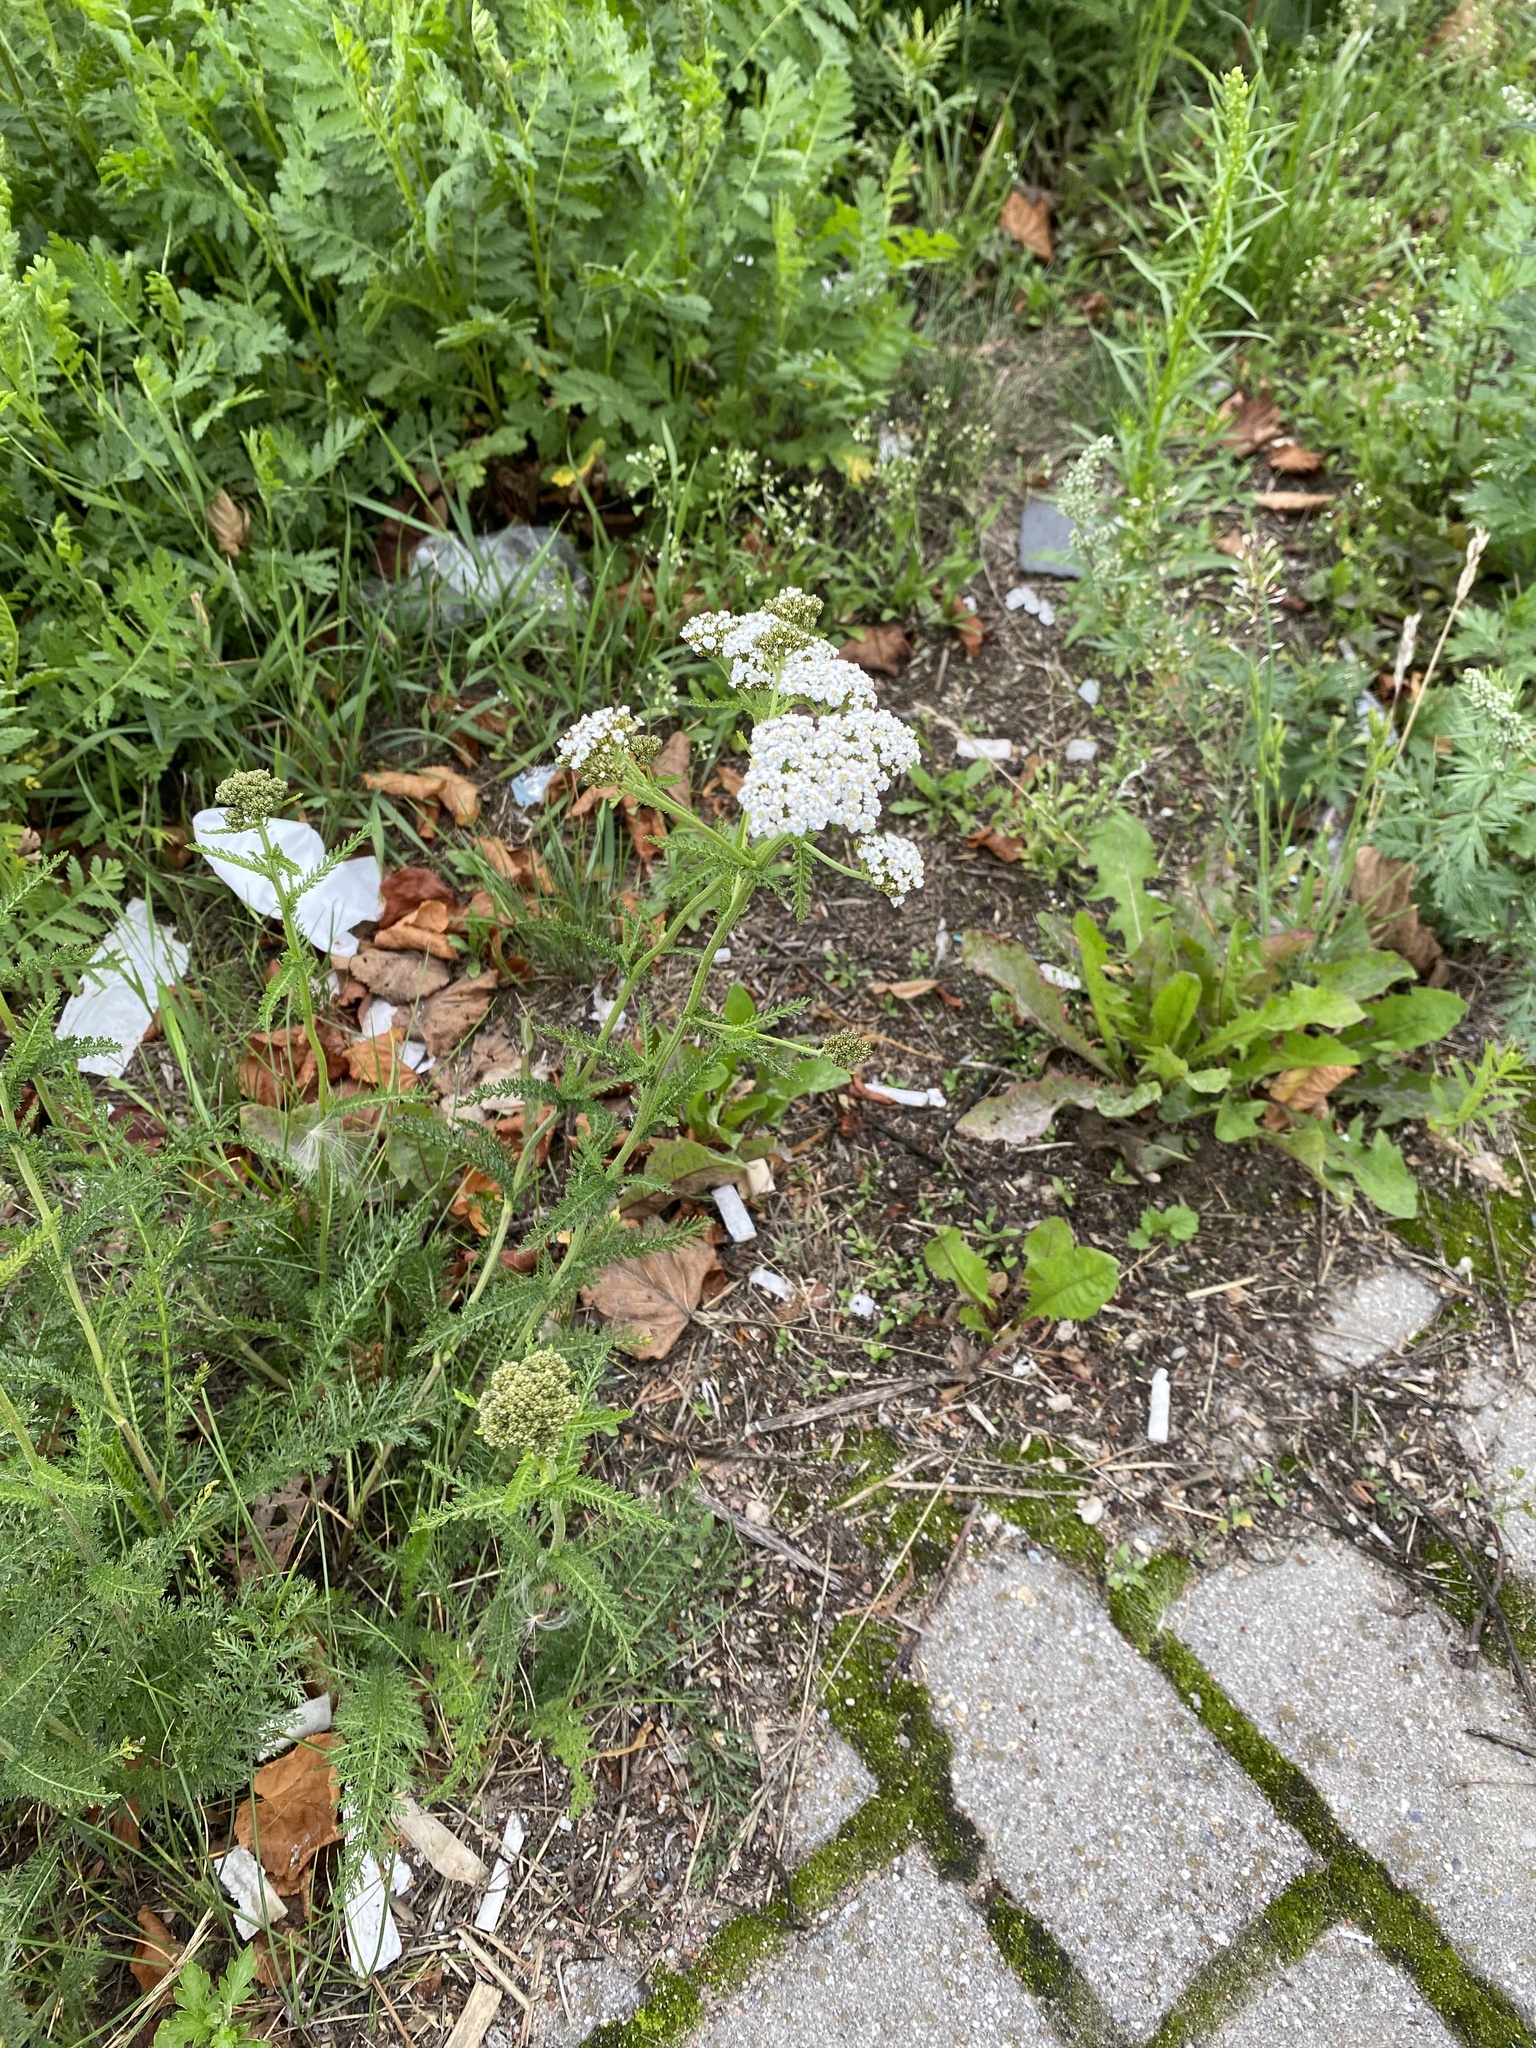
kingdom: Plantae
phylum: Tracheophyta
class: Magnoliopsida
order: Asterales
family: Asteraceae
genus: Achillea
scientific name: Achillea millefolium
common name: Yarrow
